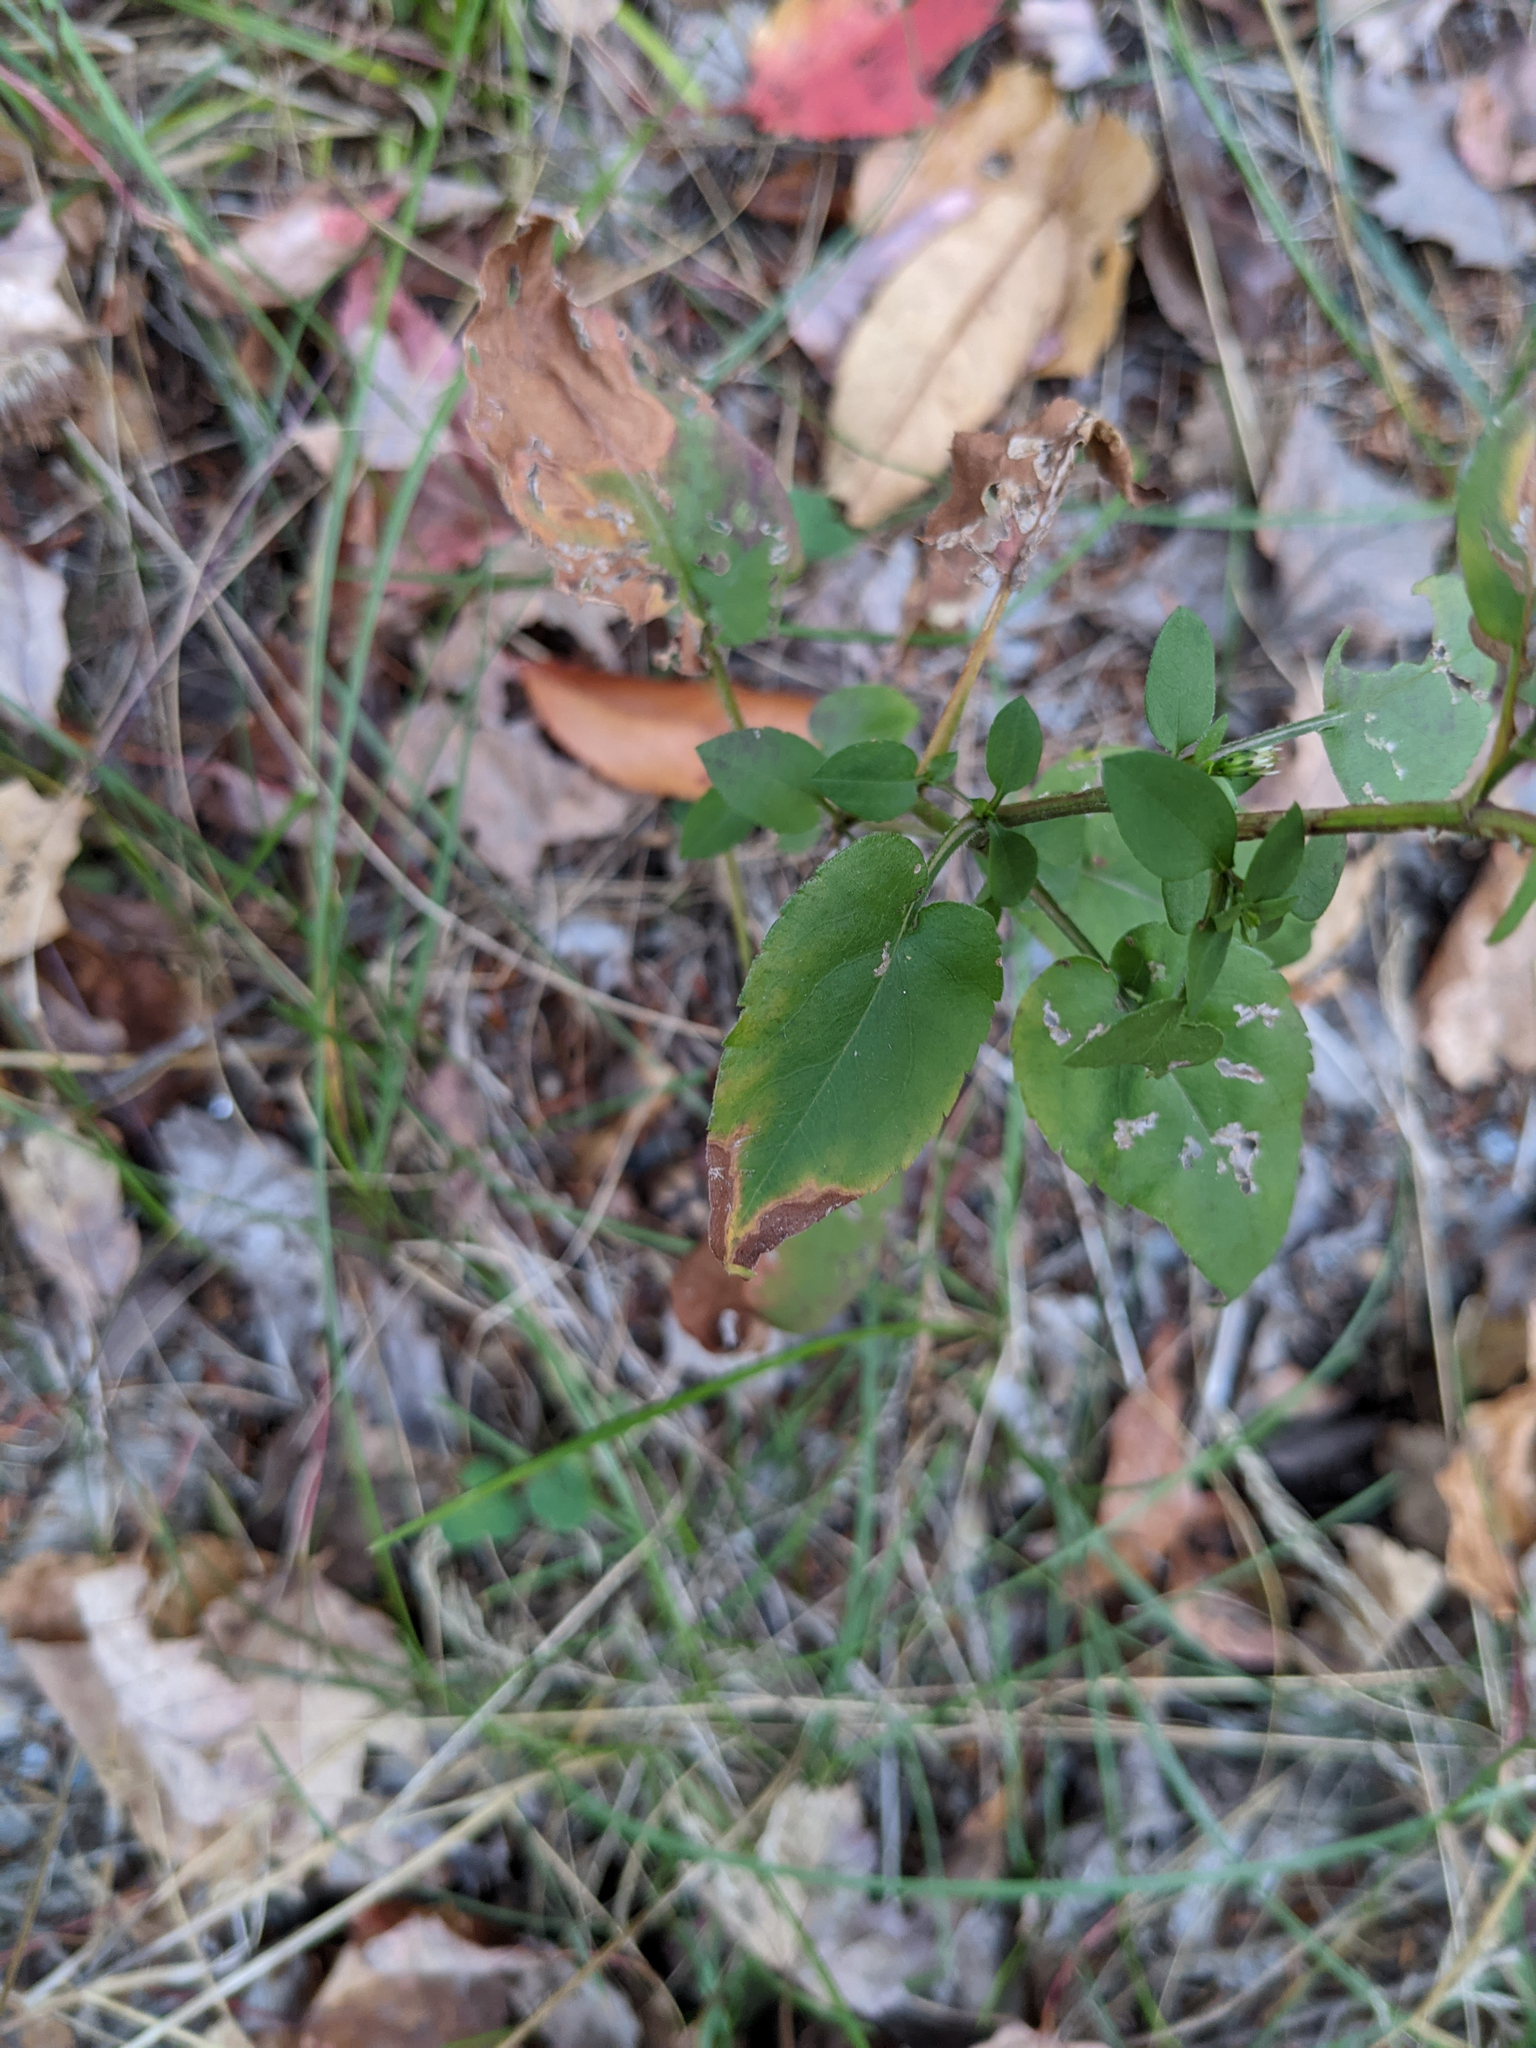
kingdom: Plantae
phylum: Tracheophyta
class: Magnoliopsida
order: Asterales
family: Asteraceae
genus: Symphyotrichum
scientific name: Symphyotrichum cordifolium
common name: Beeweed
